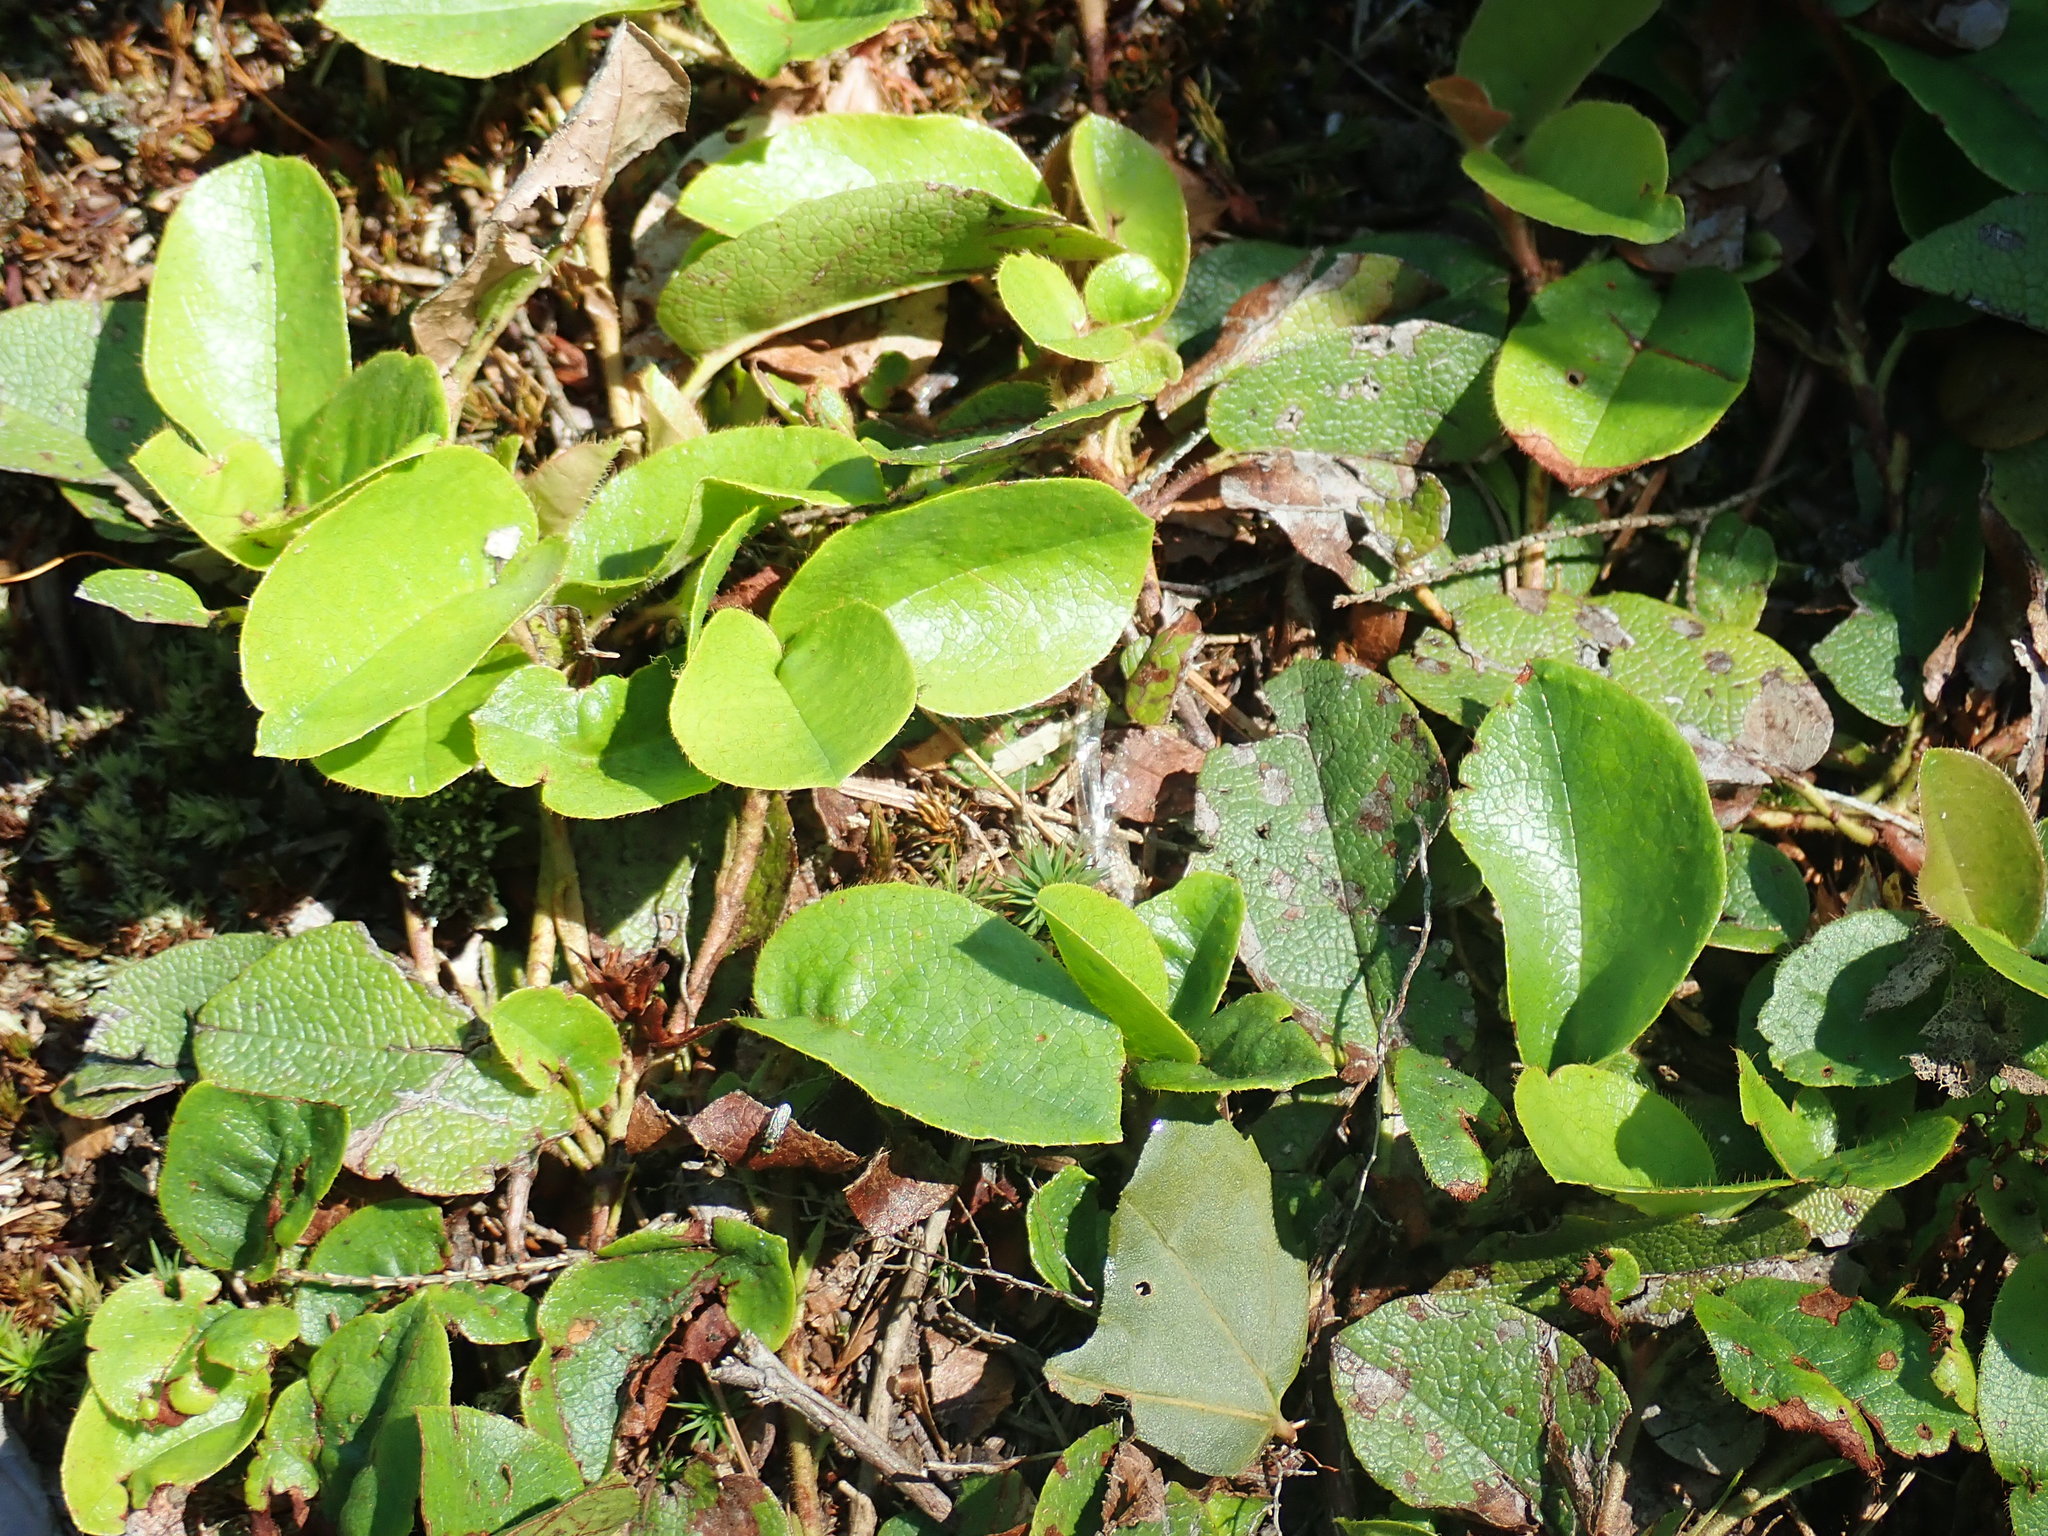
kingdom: Plantae
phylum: Tracheophyta
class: Magnoliopsida
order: Ericales
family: Ericaceae
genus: Epigaea
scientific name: Epigaea repens
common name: Gravelroot
